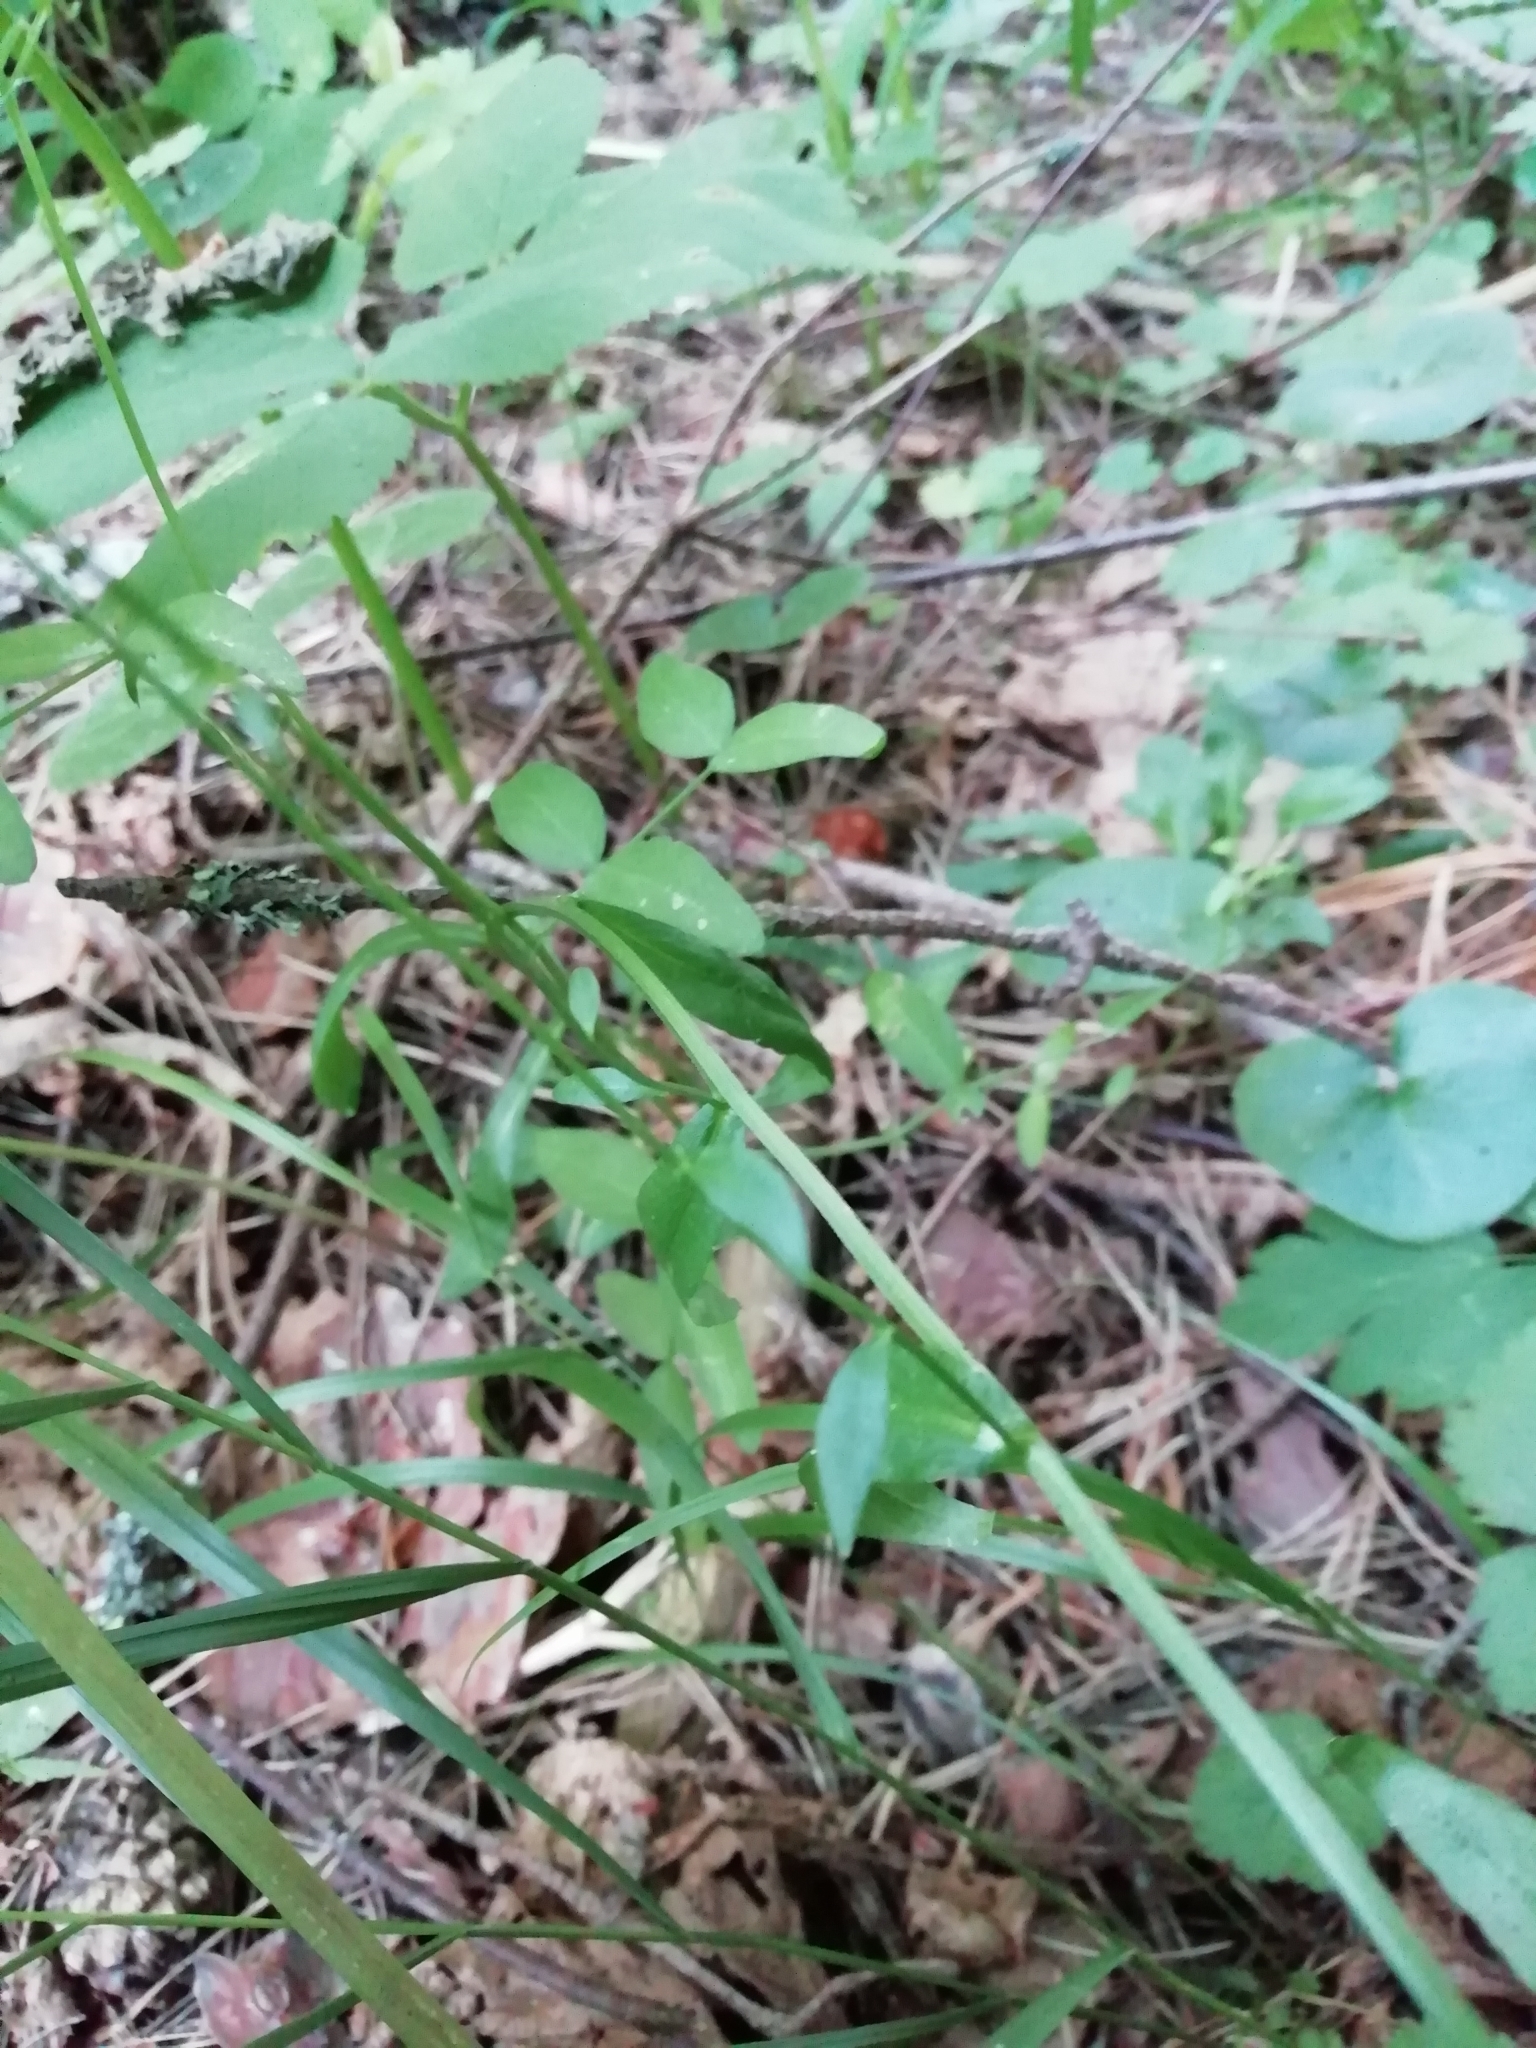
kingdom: Plantae
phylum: Tracheophyta
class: Magnoliopsida
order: Asterales
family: Campanulaceae
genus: Campanula
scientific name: Campanula patula
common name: Spreading bellflower
